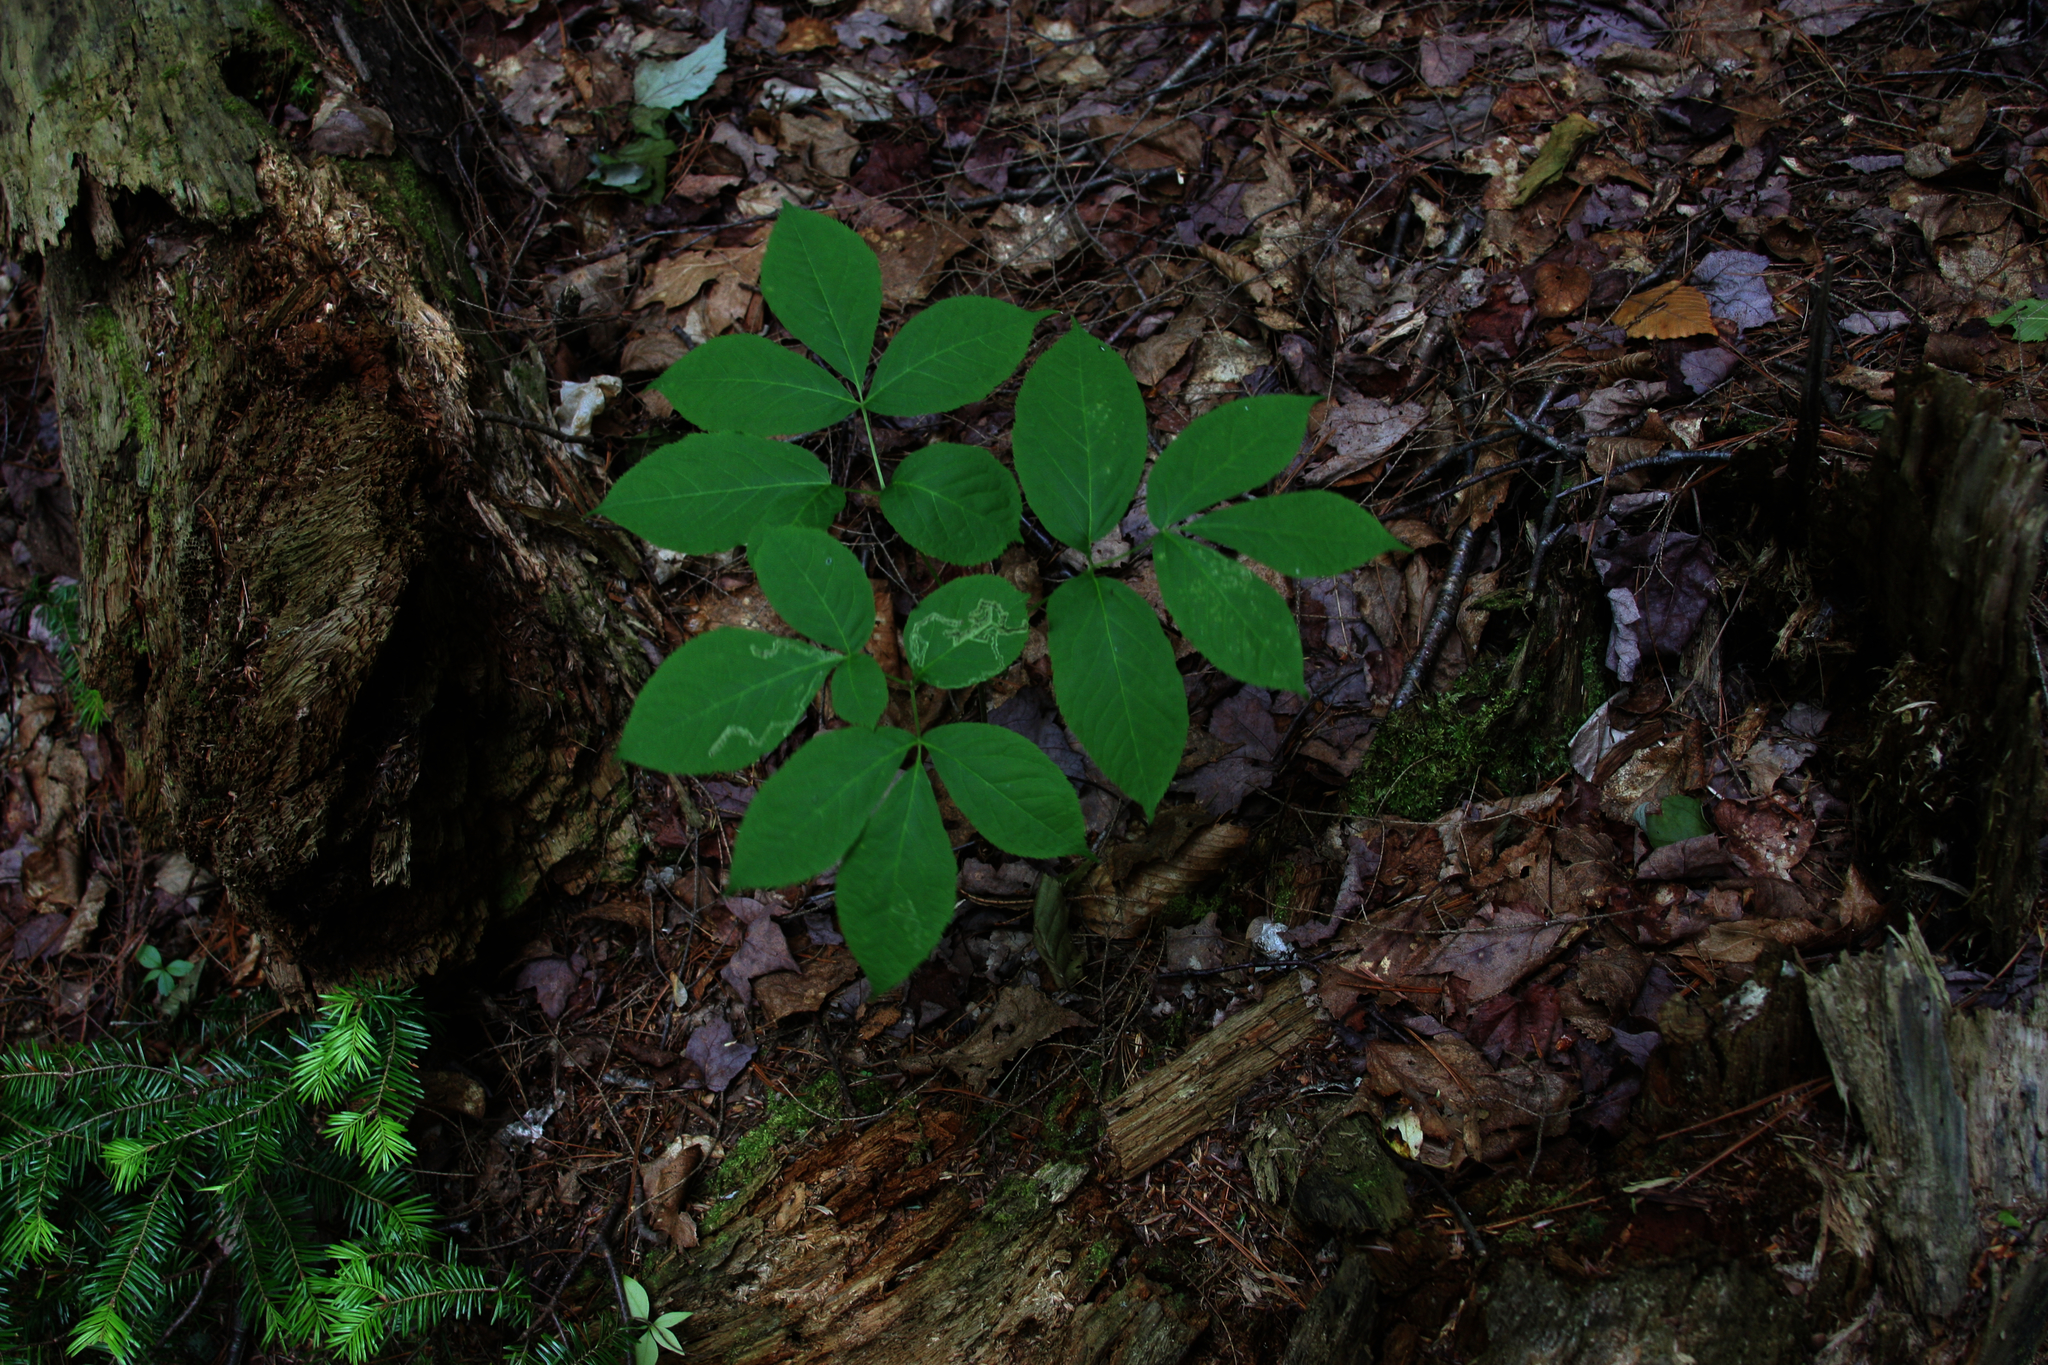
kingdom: Plantae
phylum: Tracheophyta
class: Pinopsida
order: Pinales
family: Pinaceae
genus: Abies
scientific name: Abies balsamea
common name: Balsam fir
